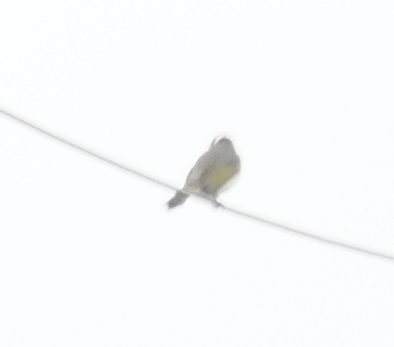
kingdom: Animalia
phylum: Chordata
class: Aves
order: Passeriformes
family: Pycnonotidae
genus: Pycnonotus
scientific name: Pycnonotus sinensis
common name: Light-vented bulbul
